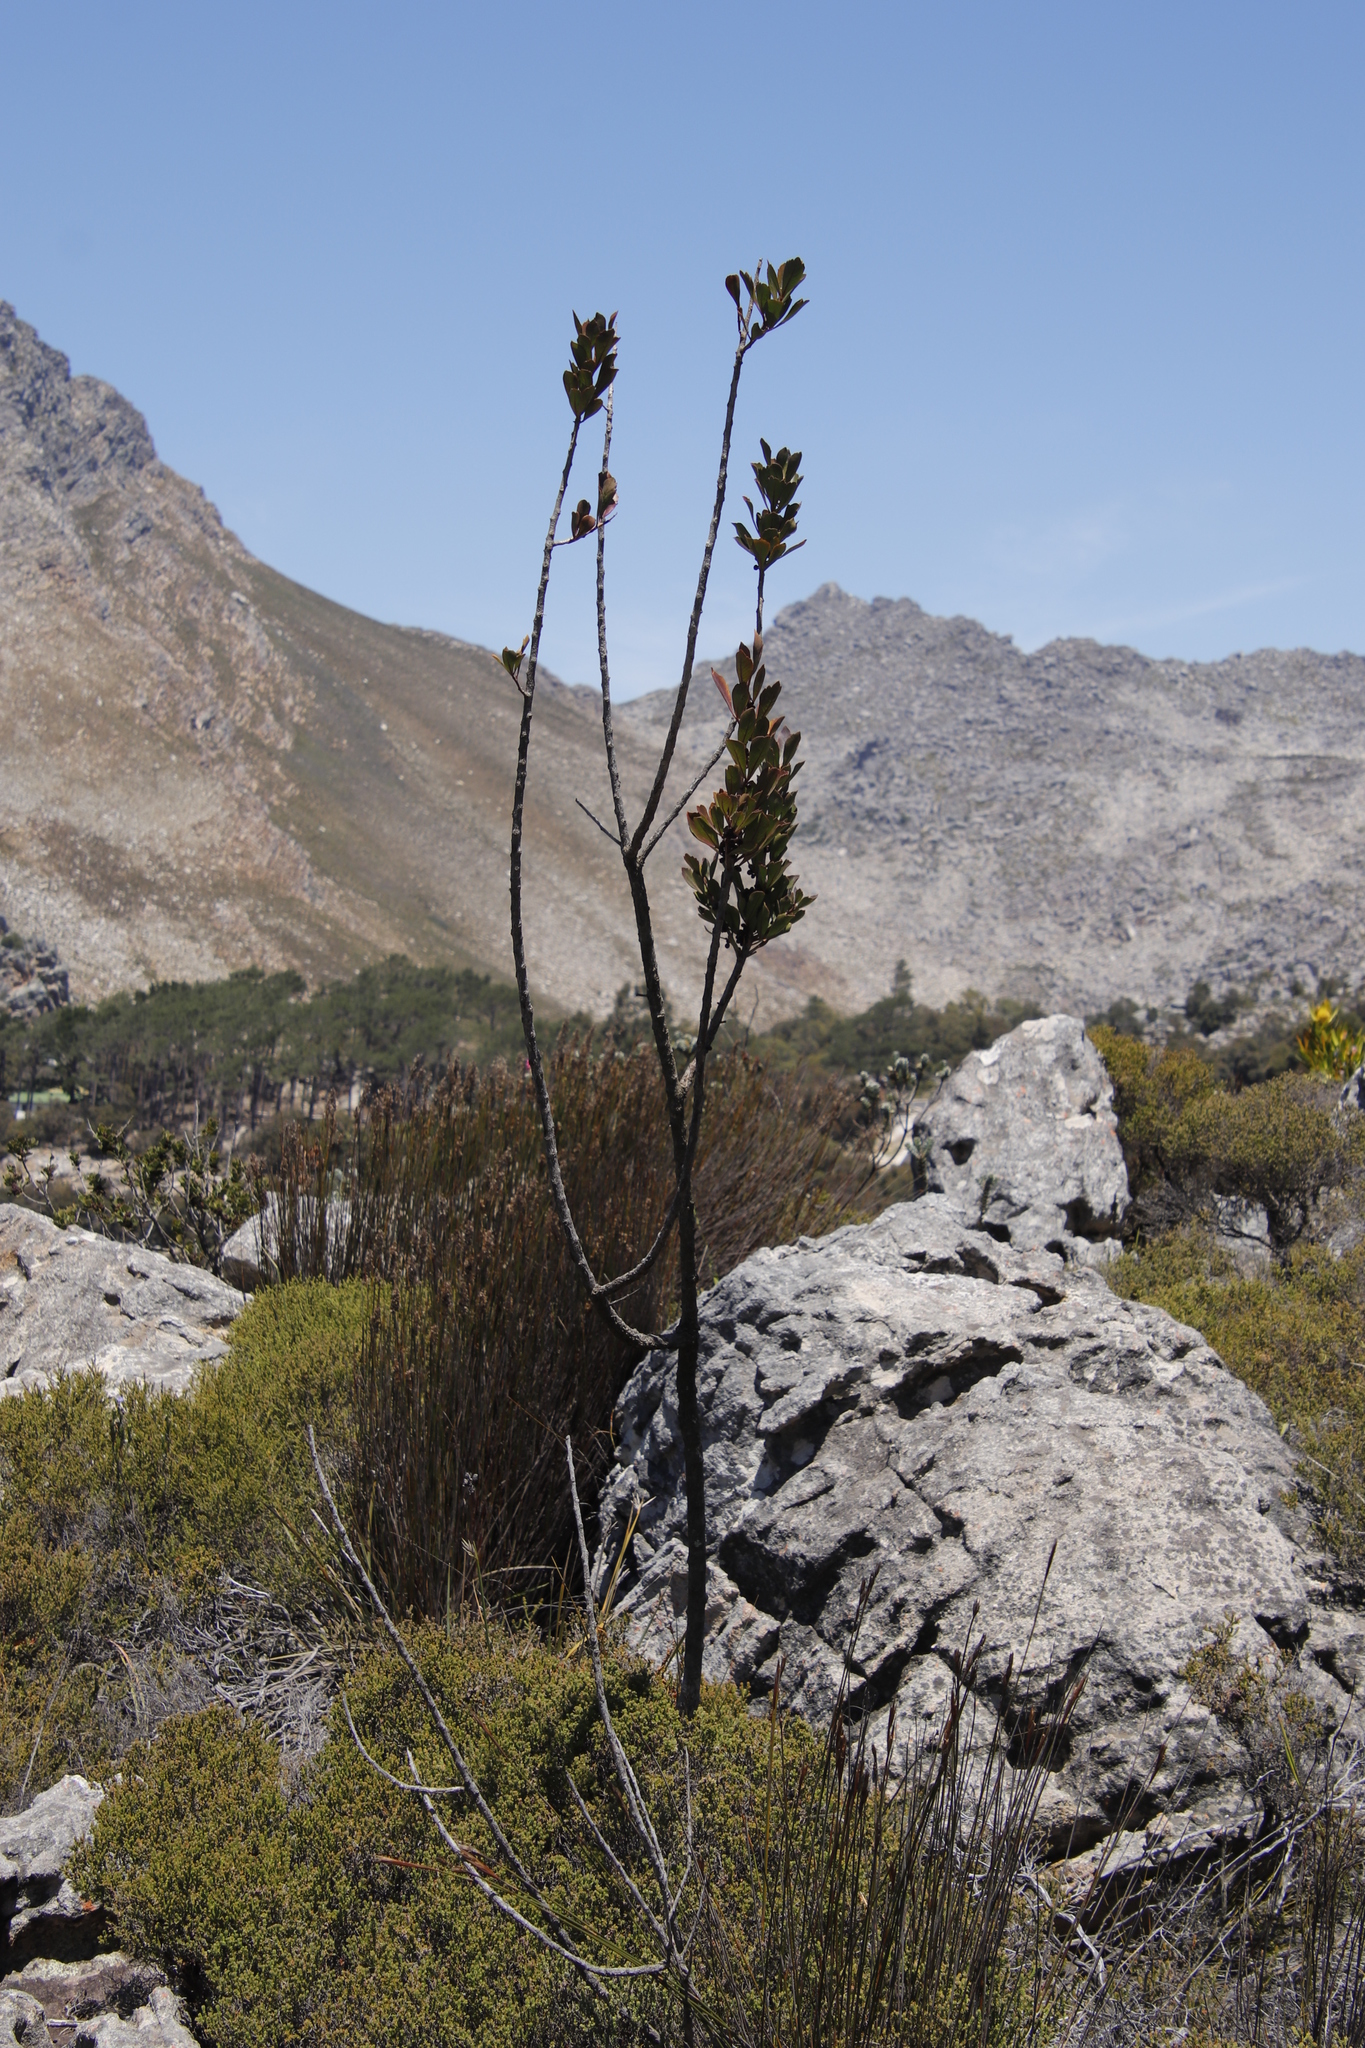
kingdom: Plantae
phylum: Tracheophyta
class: Magnoliopsida
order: Sapindales
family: Anacardiaceae
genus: Searsia
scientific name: Searsia scytophylla
